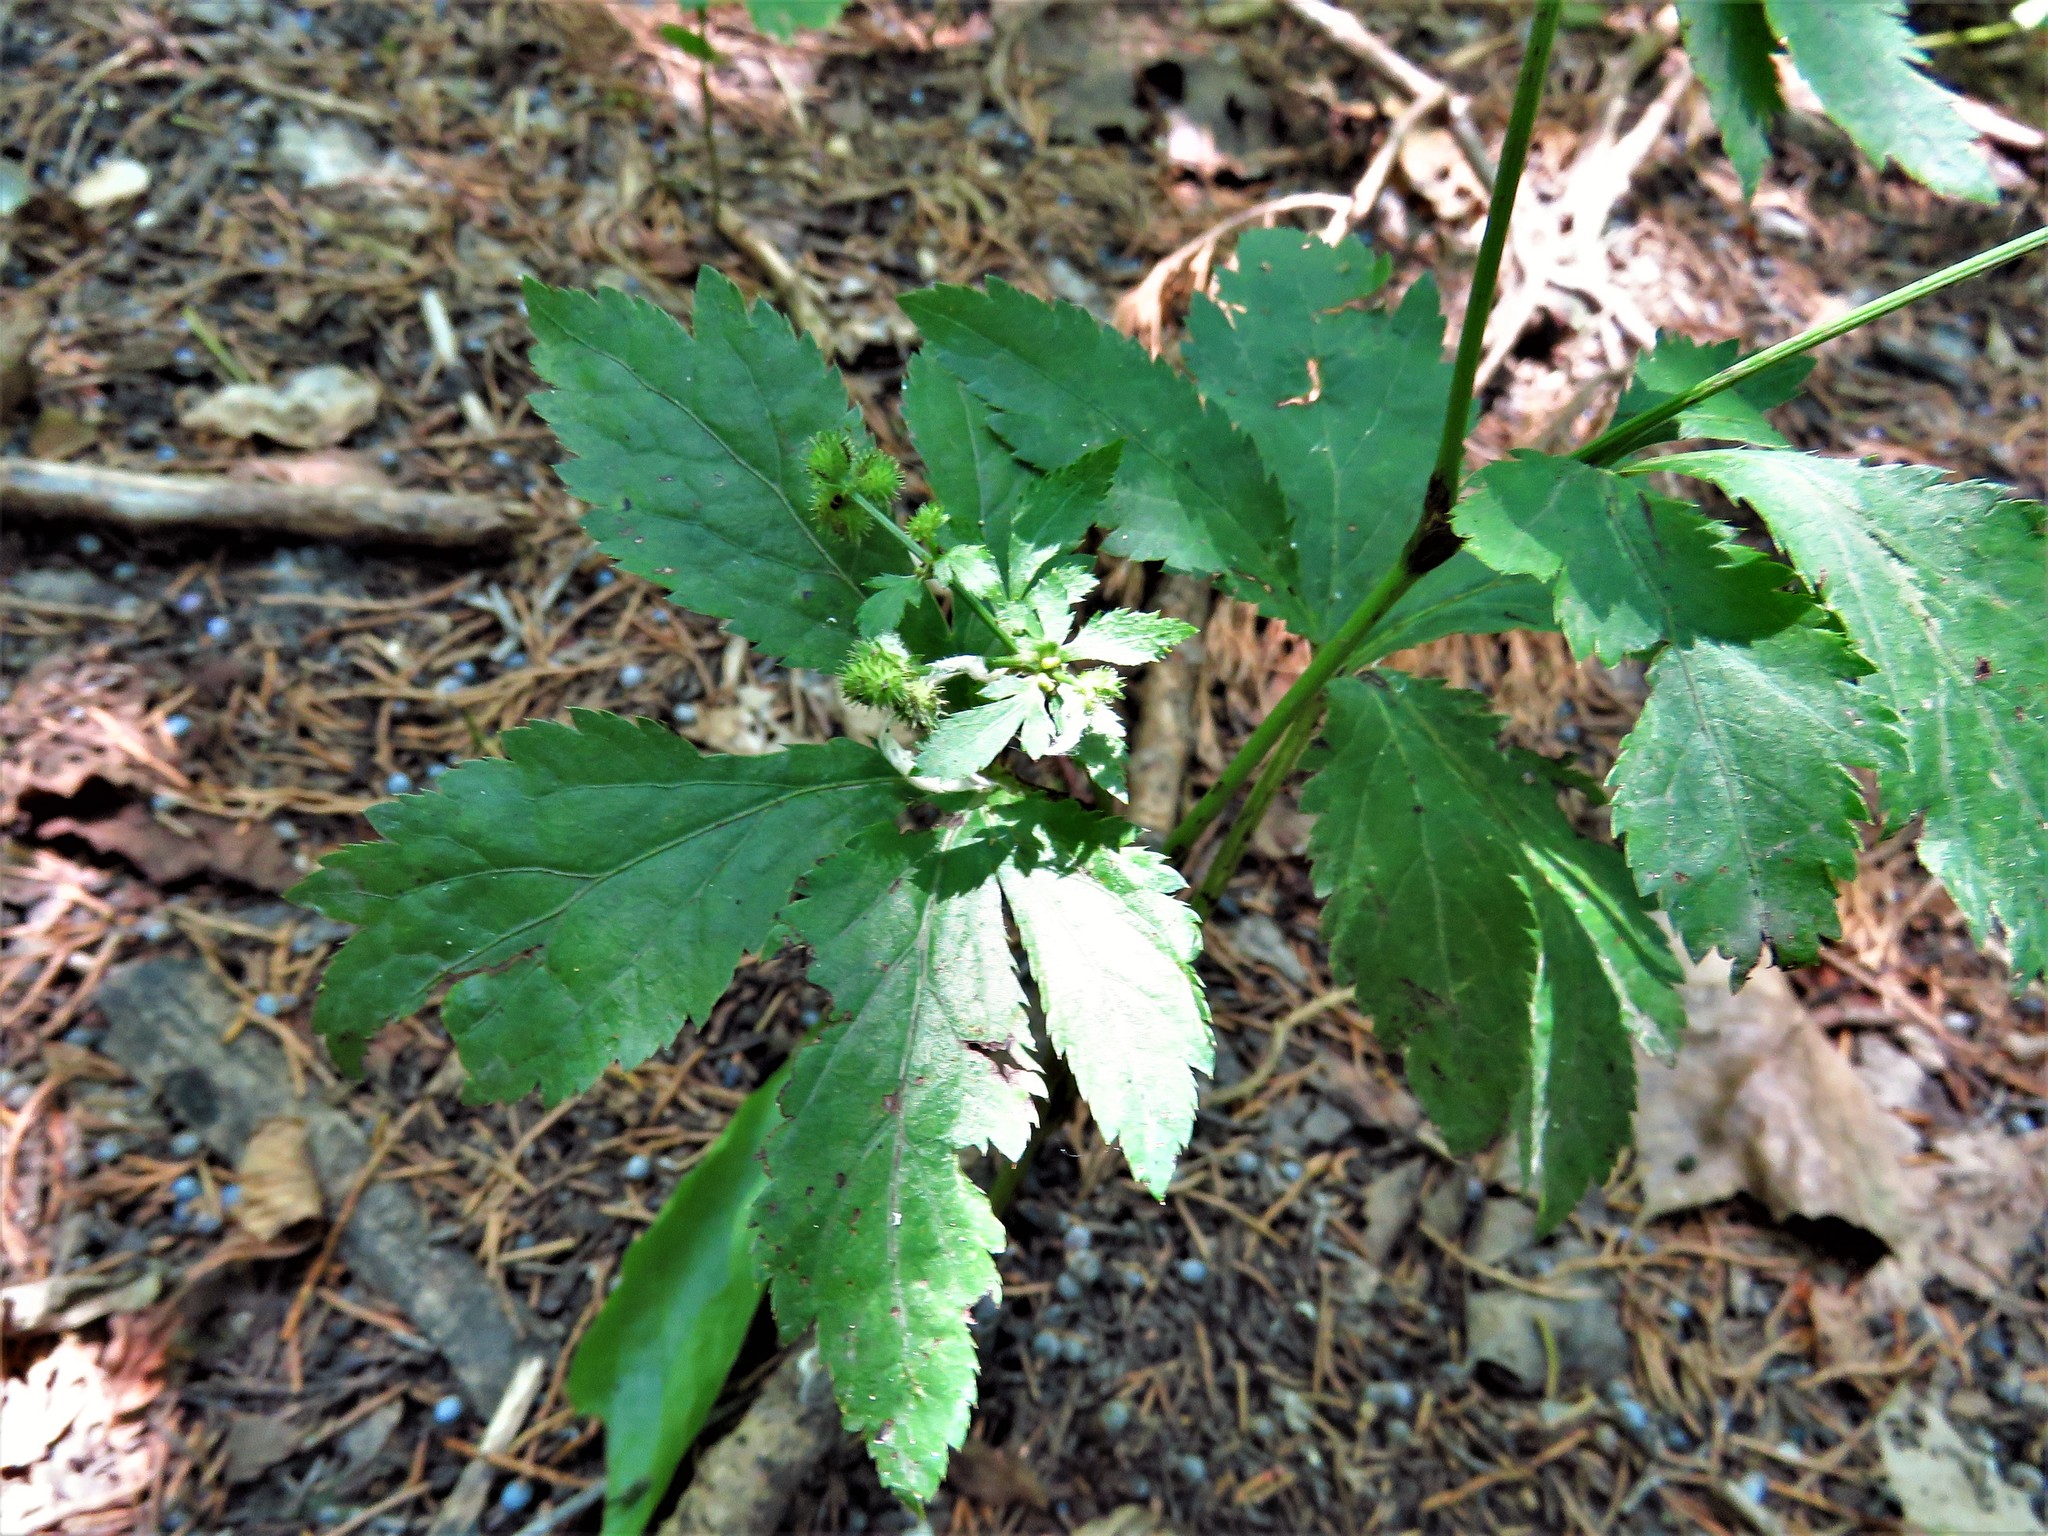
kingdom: Plantae
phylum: Tracheophyta
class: Magnoliopsida
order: Apiales
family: Apiaceae
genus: Sanicula
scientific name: Sanicula canadensis
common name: Canada sanicle
